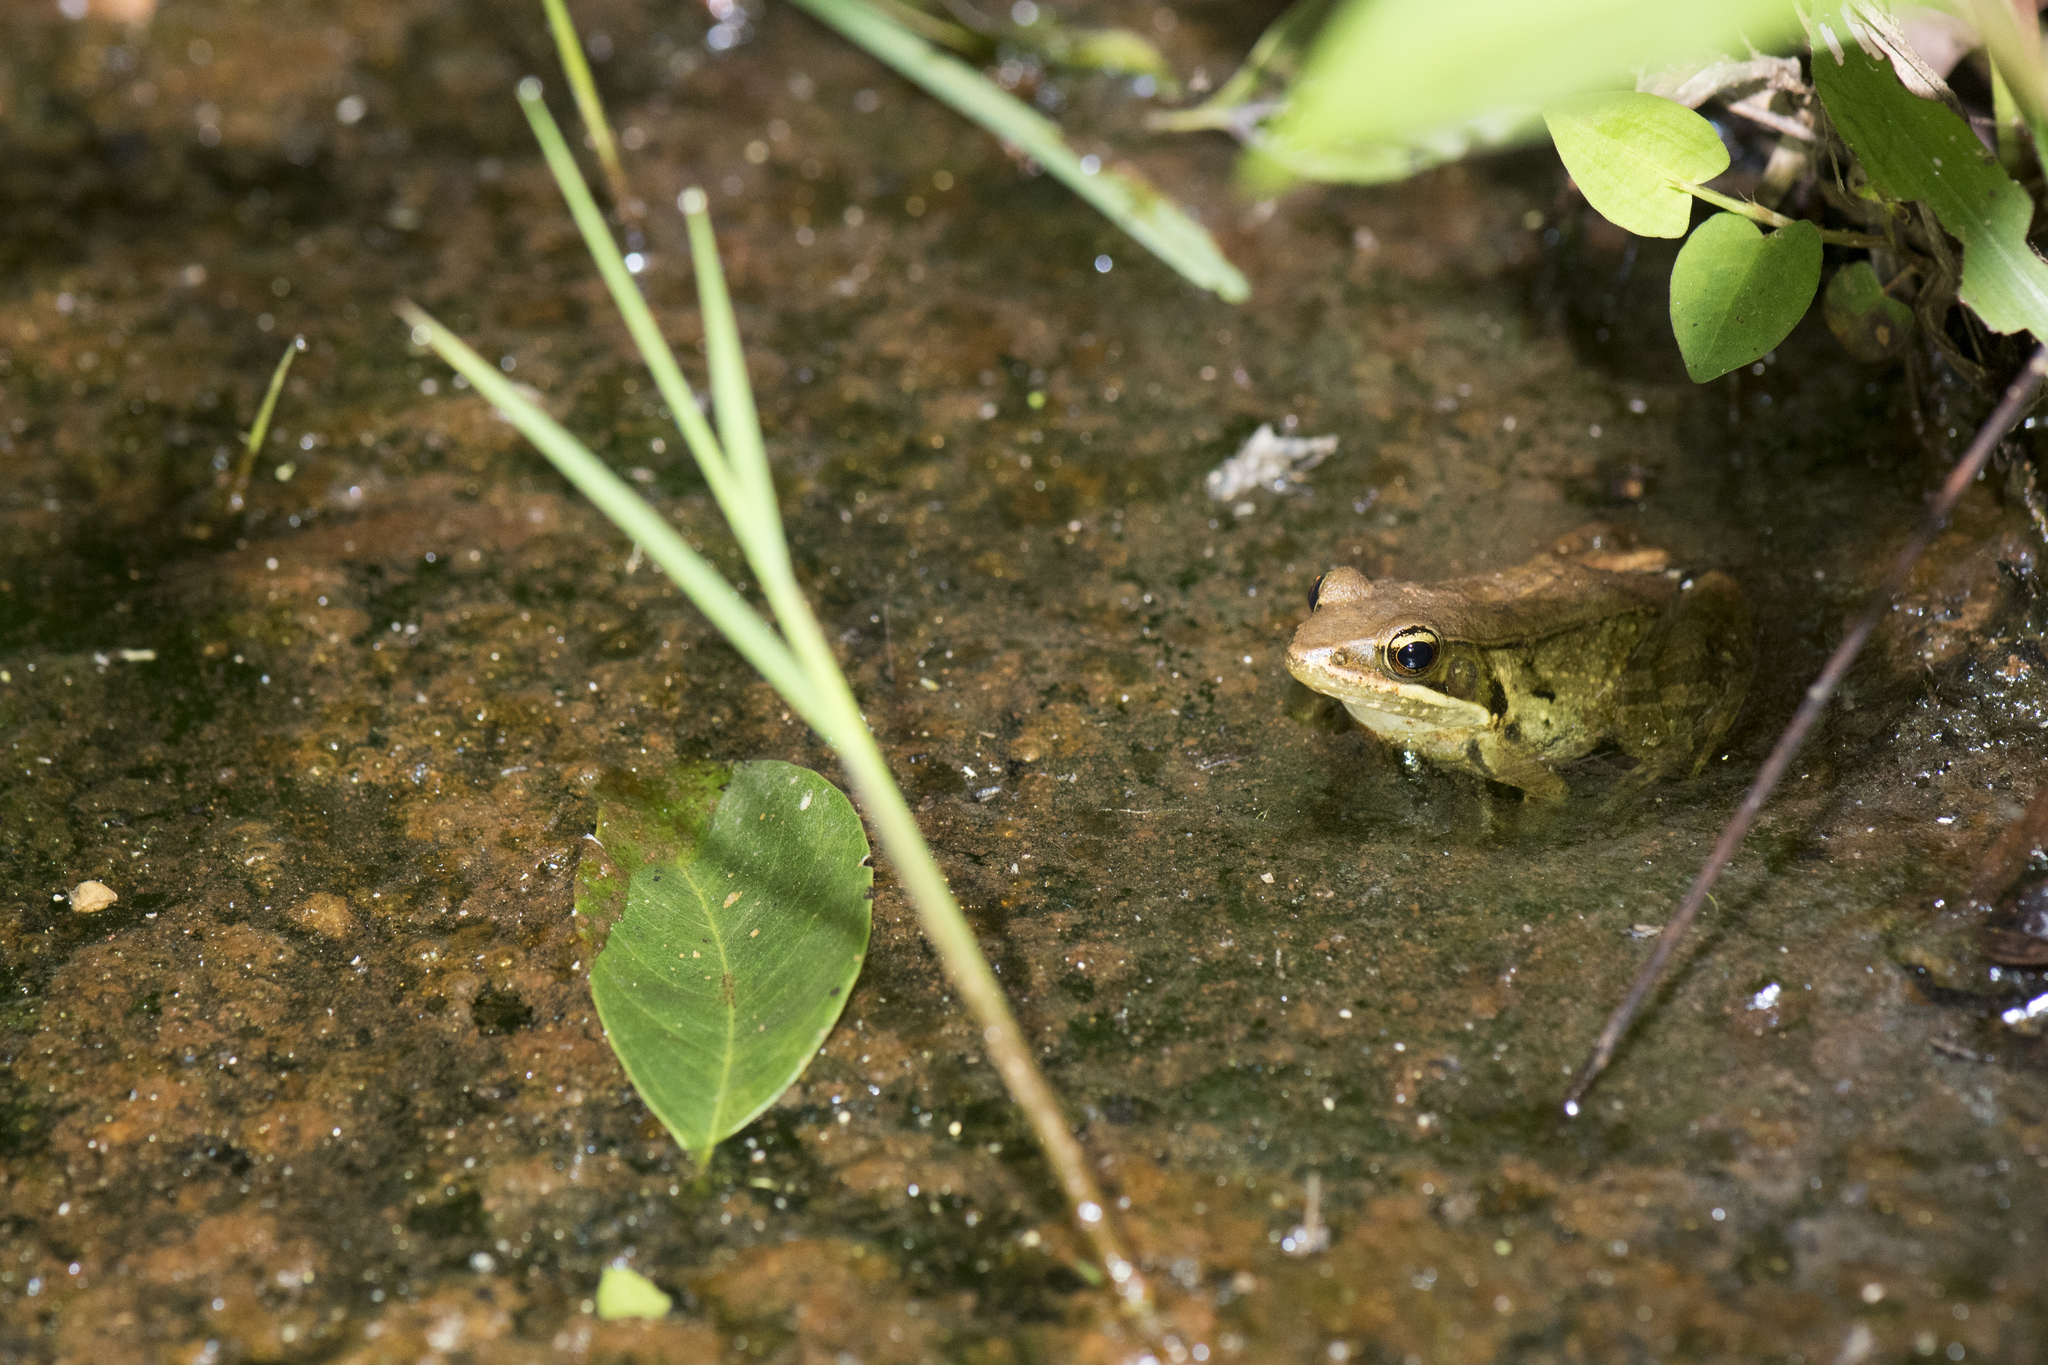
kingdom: Animalia
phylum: Chordata
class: Amphibia
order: Anura
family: Ranidae
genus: Nidirana
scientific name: Nidirana adenopleura
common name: Olive frog
